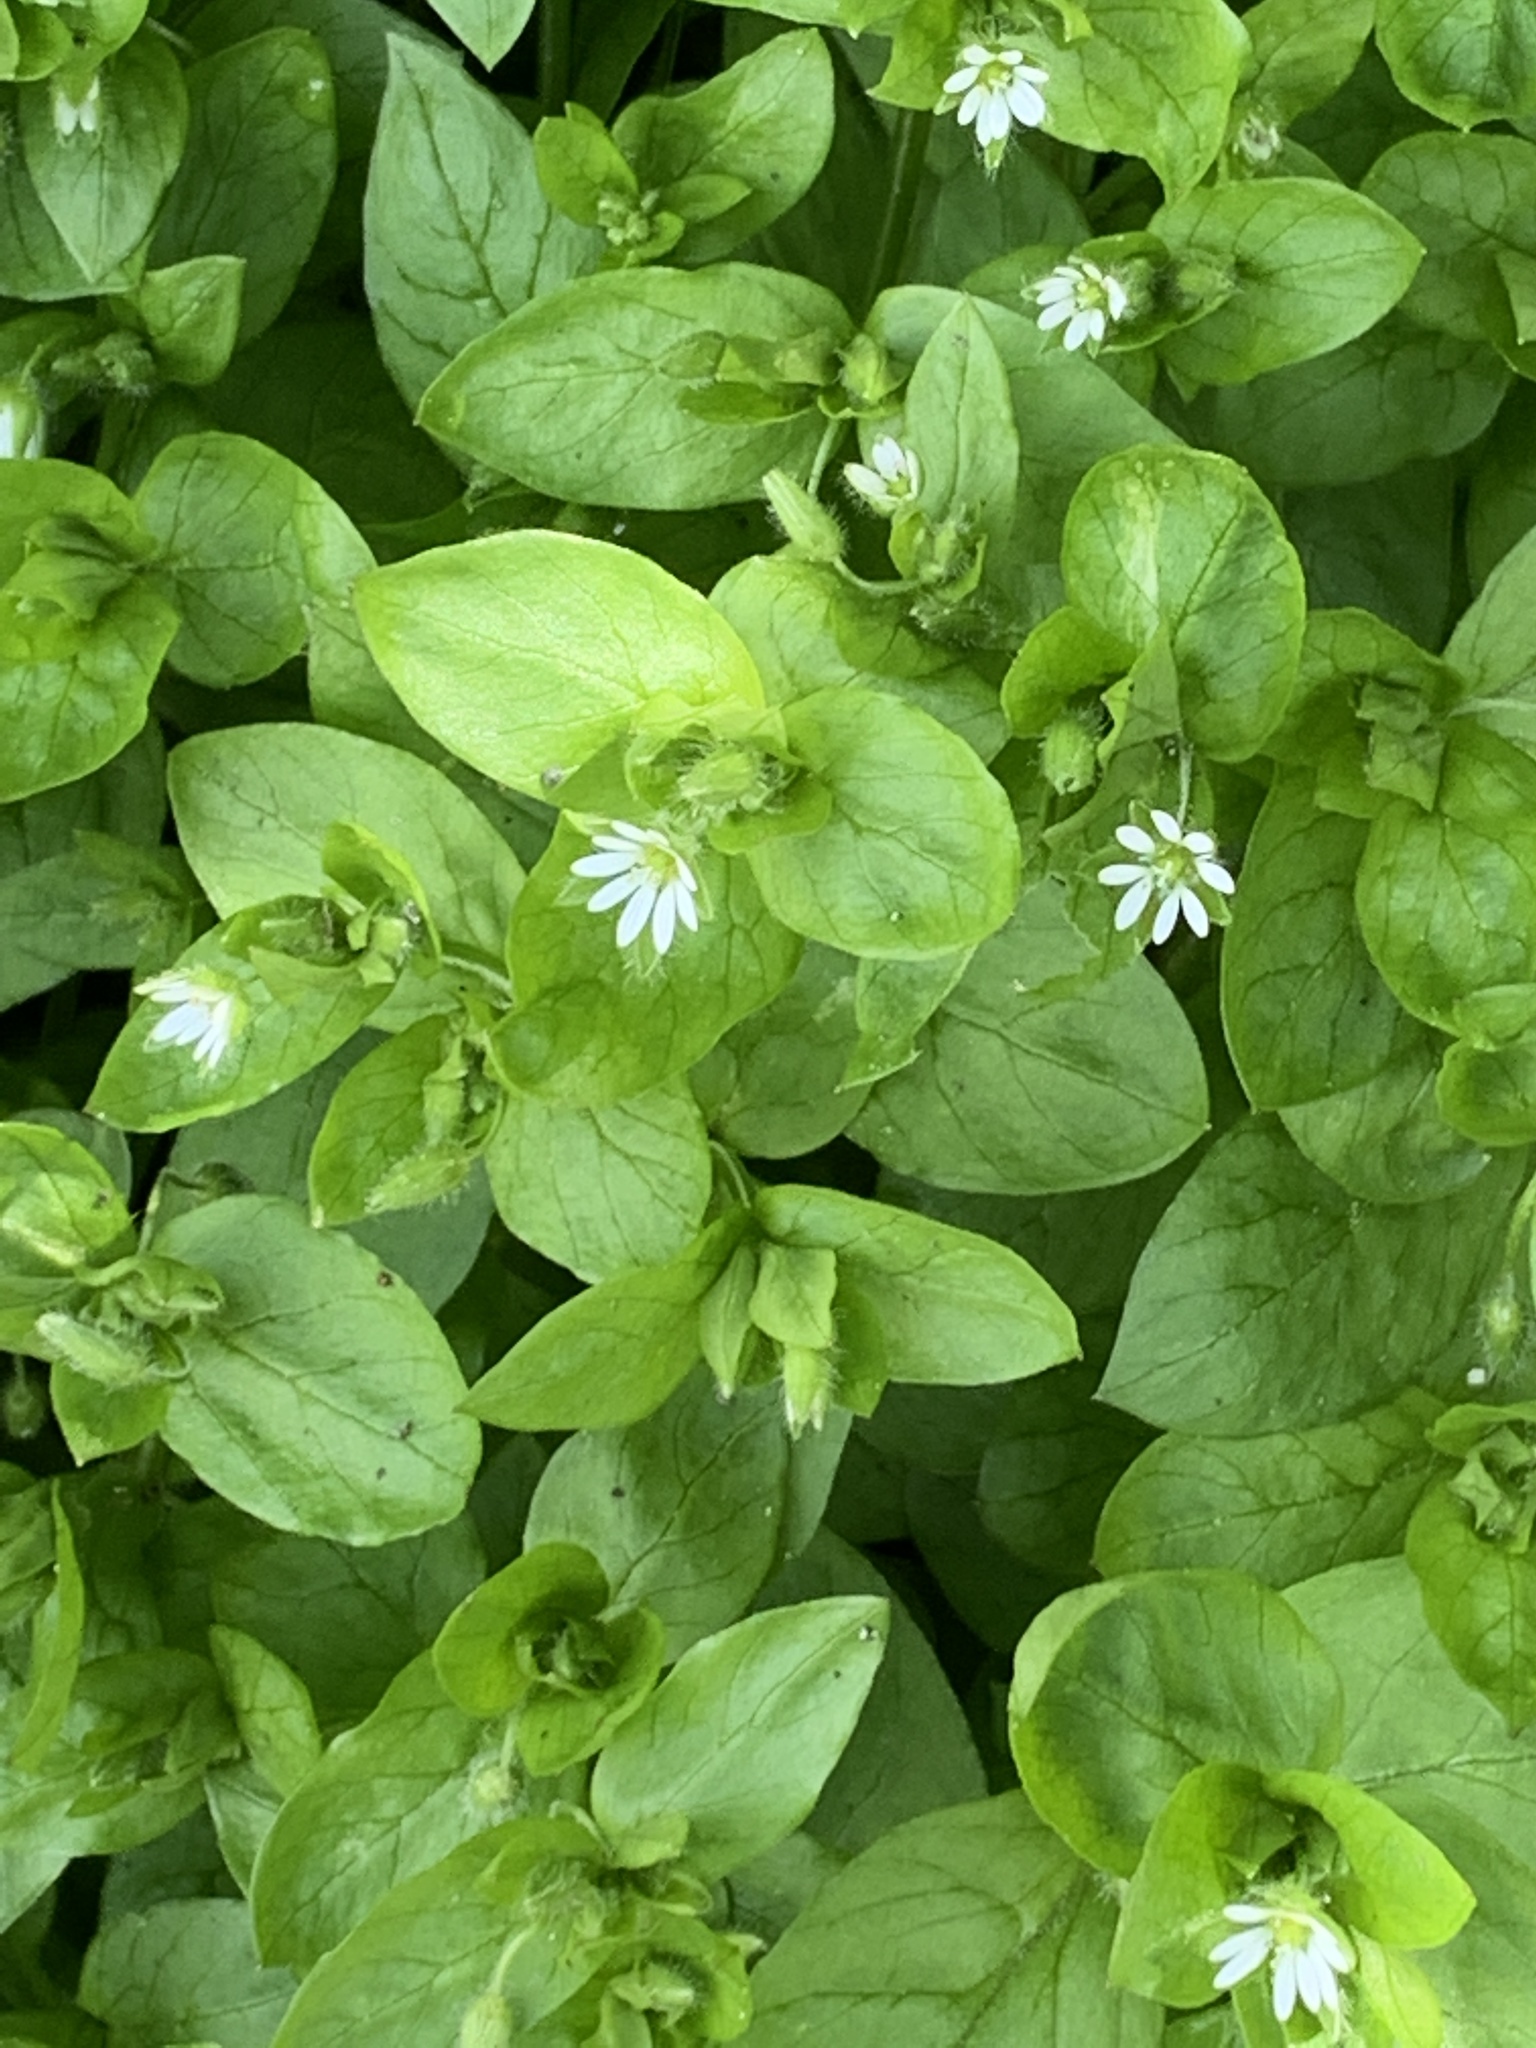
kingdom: Plantae
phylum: Tracheophyta
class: Magnoliopsida
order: Caryophyllales
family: Caryophyllaceae
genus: Stellaria
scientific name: Stellaria media
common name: Common chickweed
